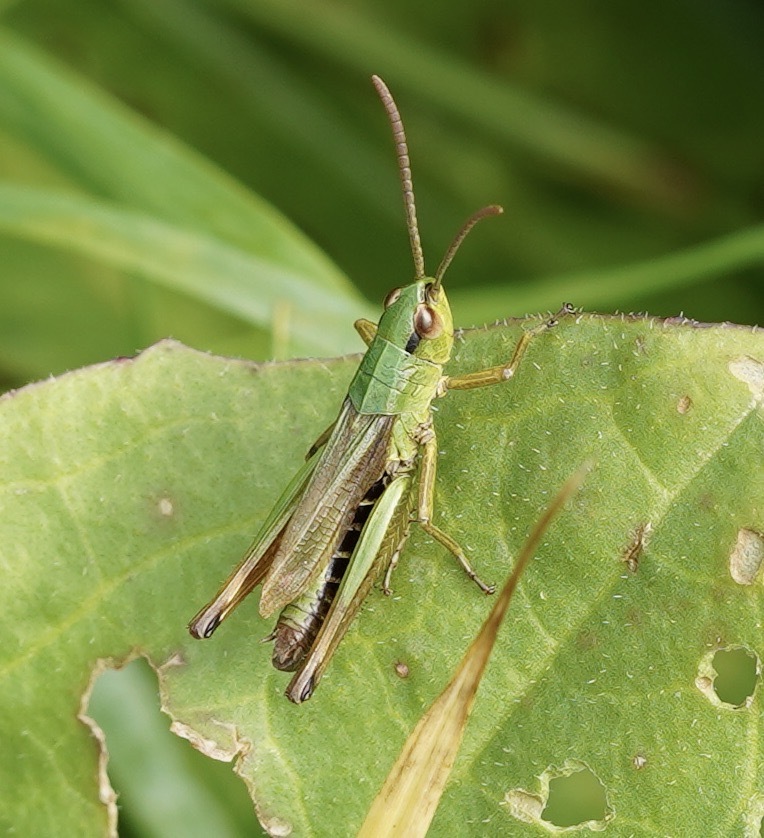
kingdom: Animalia
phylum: Arthropoda
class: Insecta
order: Orthoptera
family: Acrididae
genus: Pseudochorthippus
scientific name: Pseudochorthippus parallelus
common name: Meadow grasshopper
